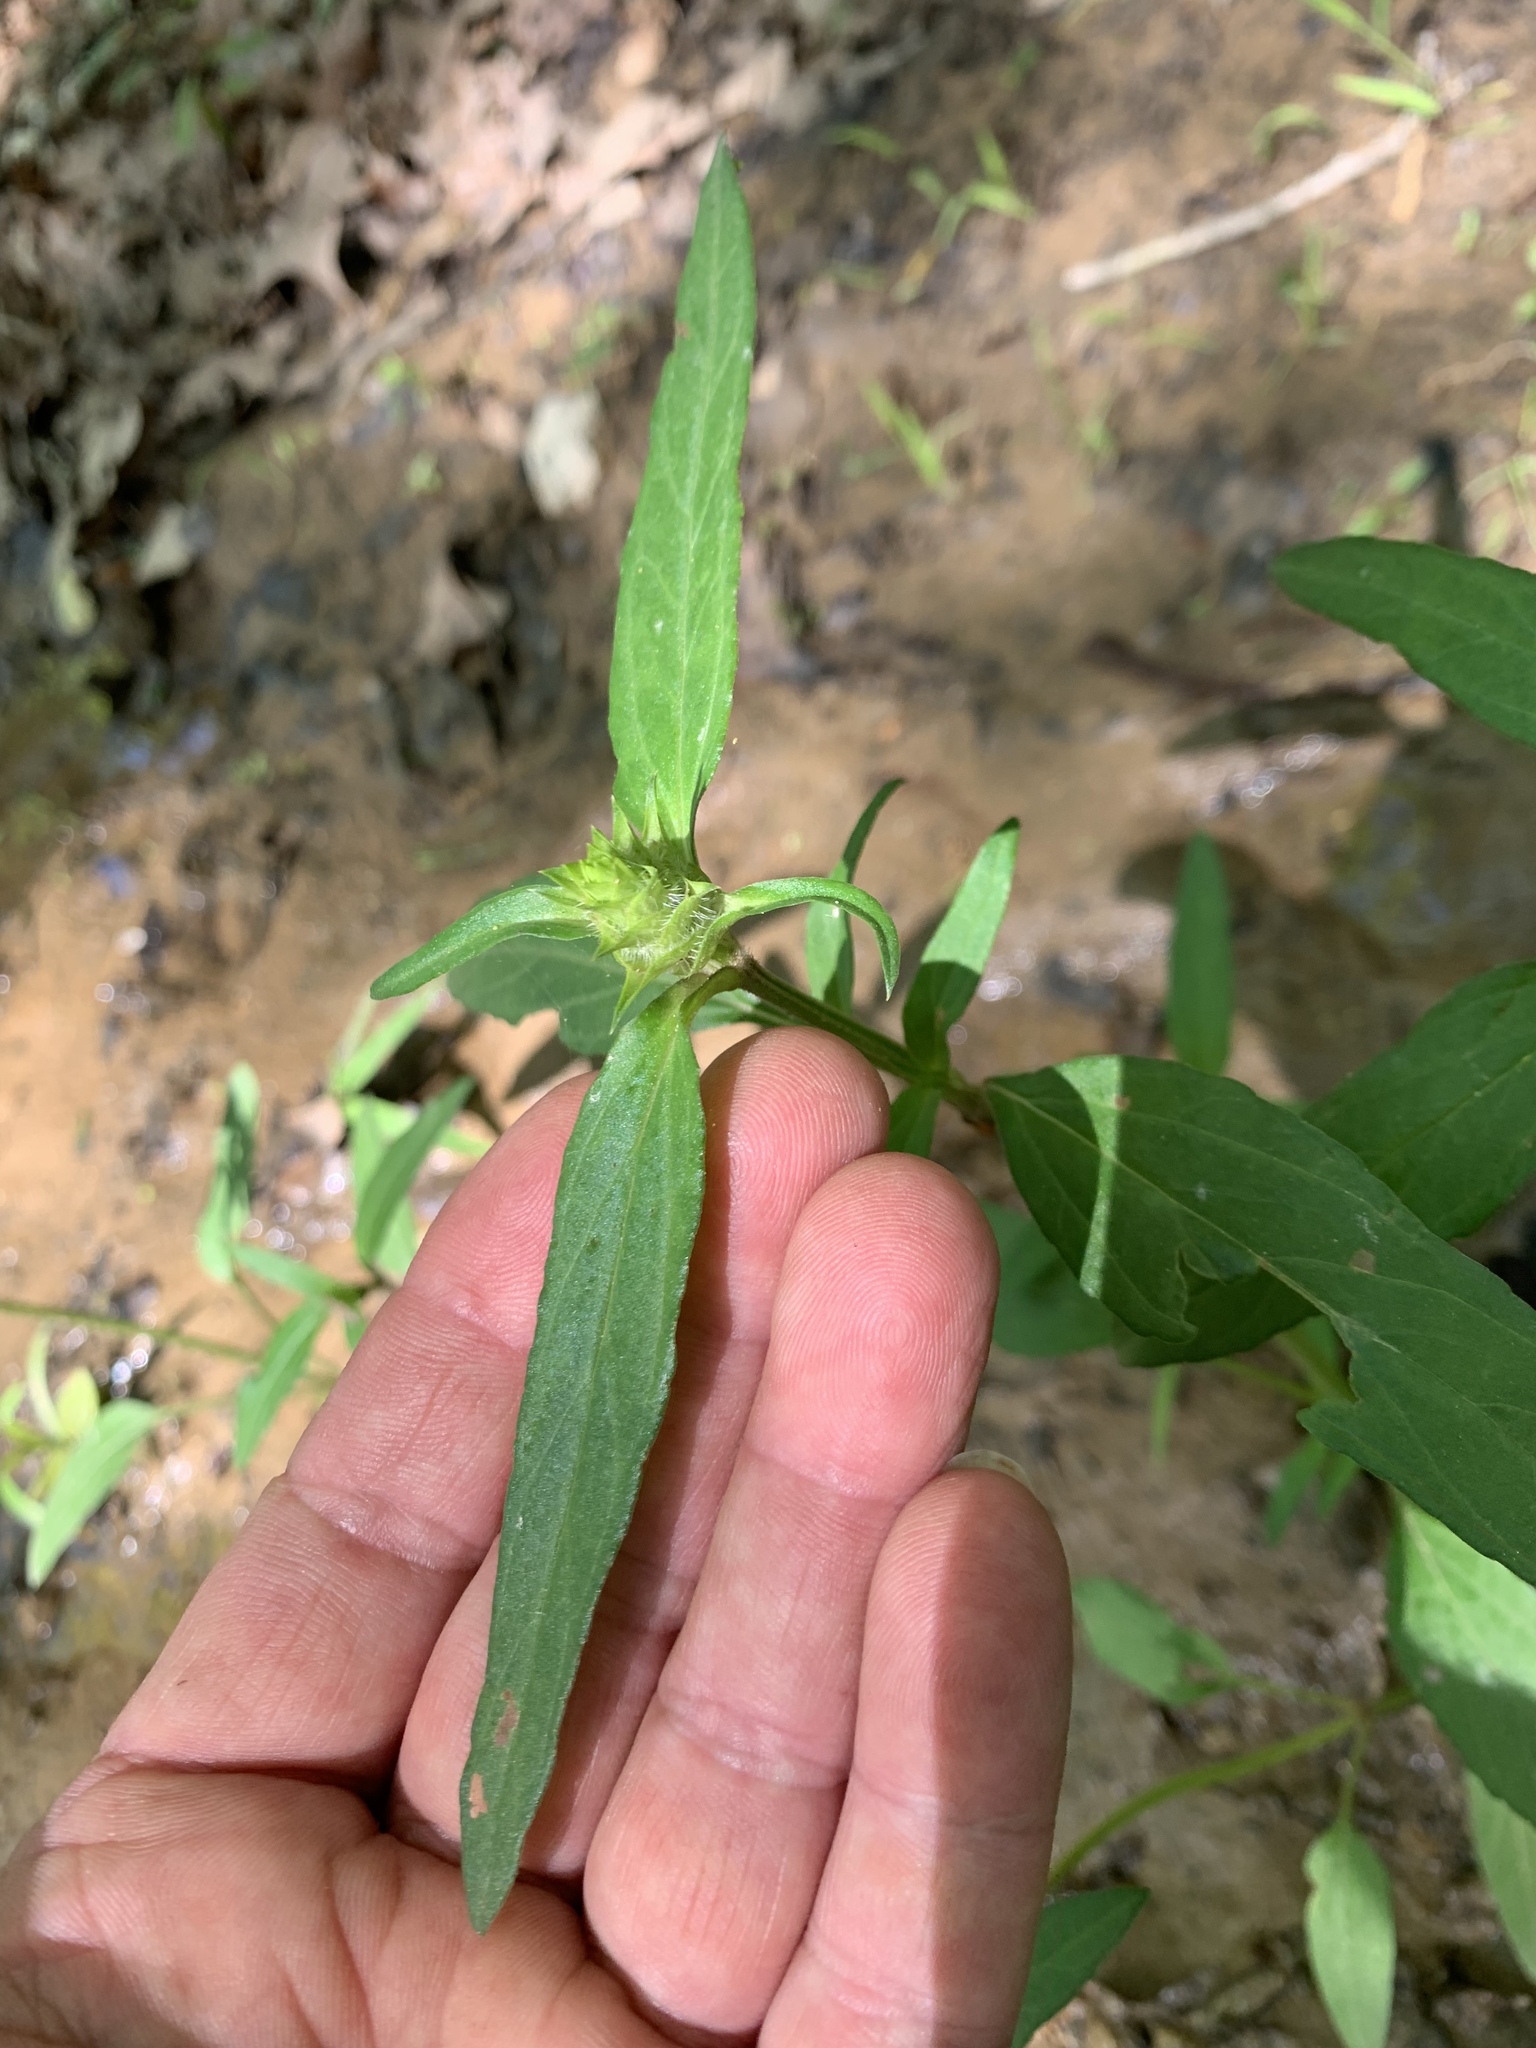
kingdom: Plantae
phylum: Tracheophyta
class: Magnoliopsida
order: Lamiales
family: Lamiaceae
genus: Prunella
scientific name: Prunella vulgaris
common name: Heal-all
